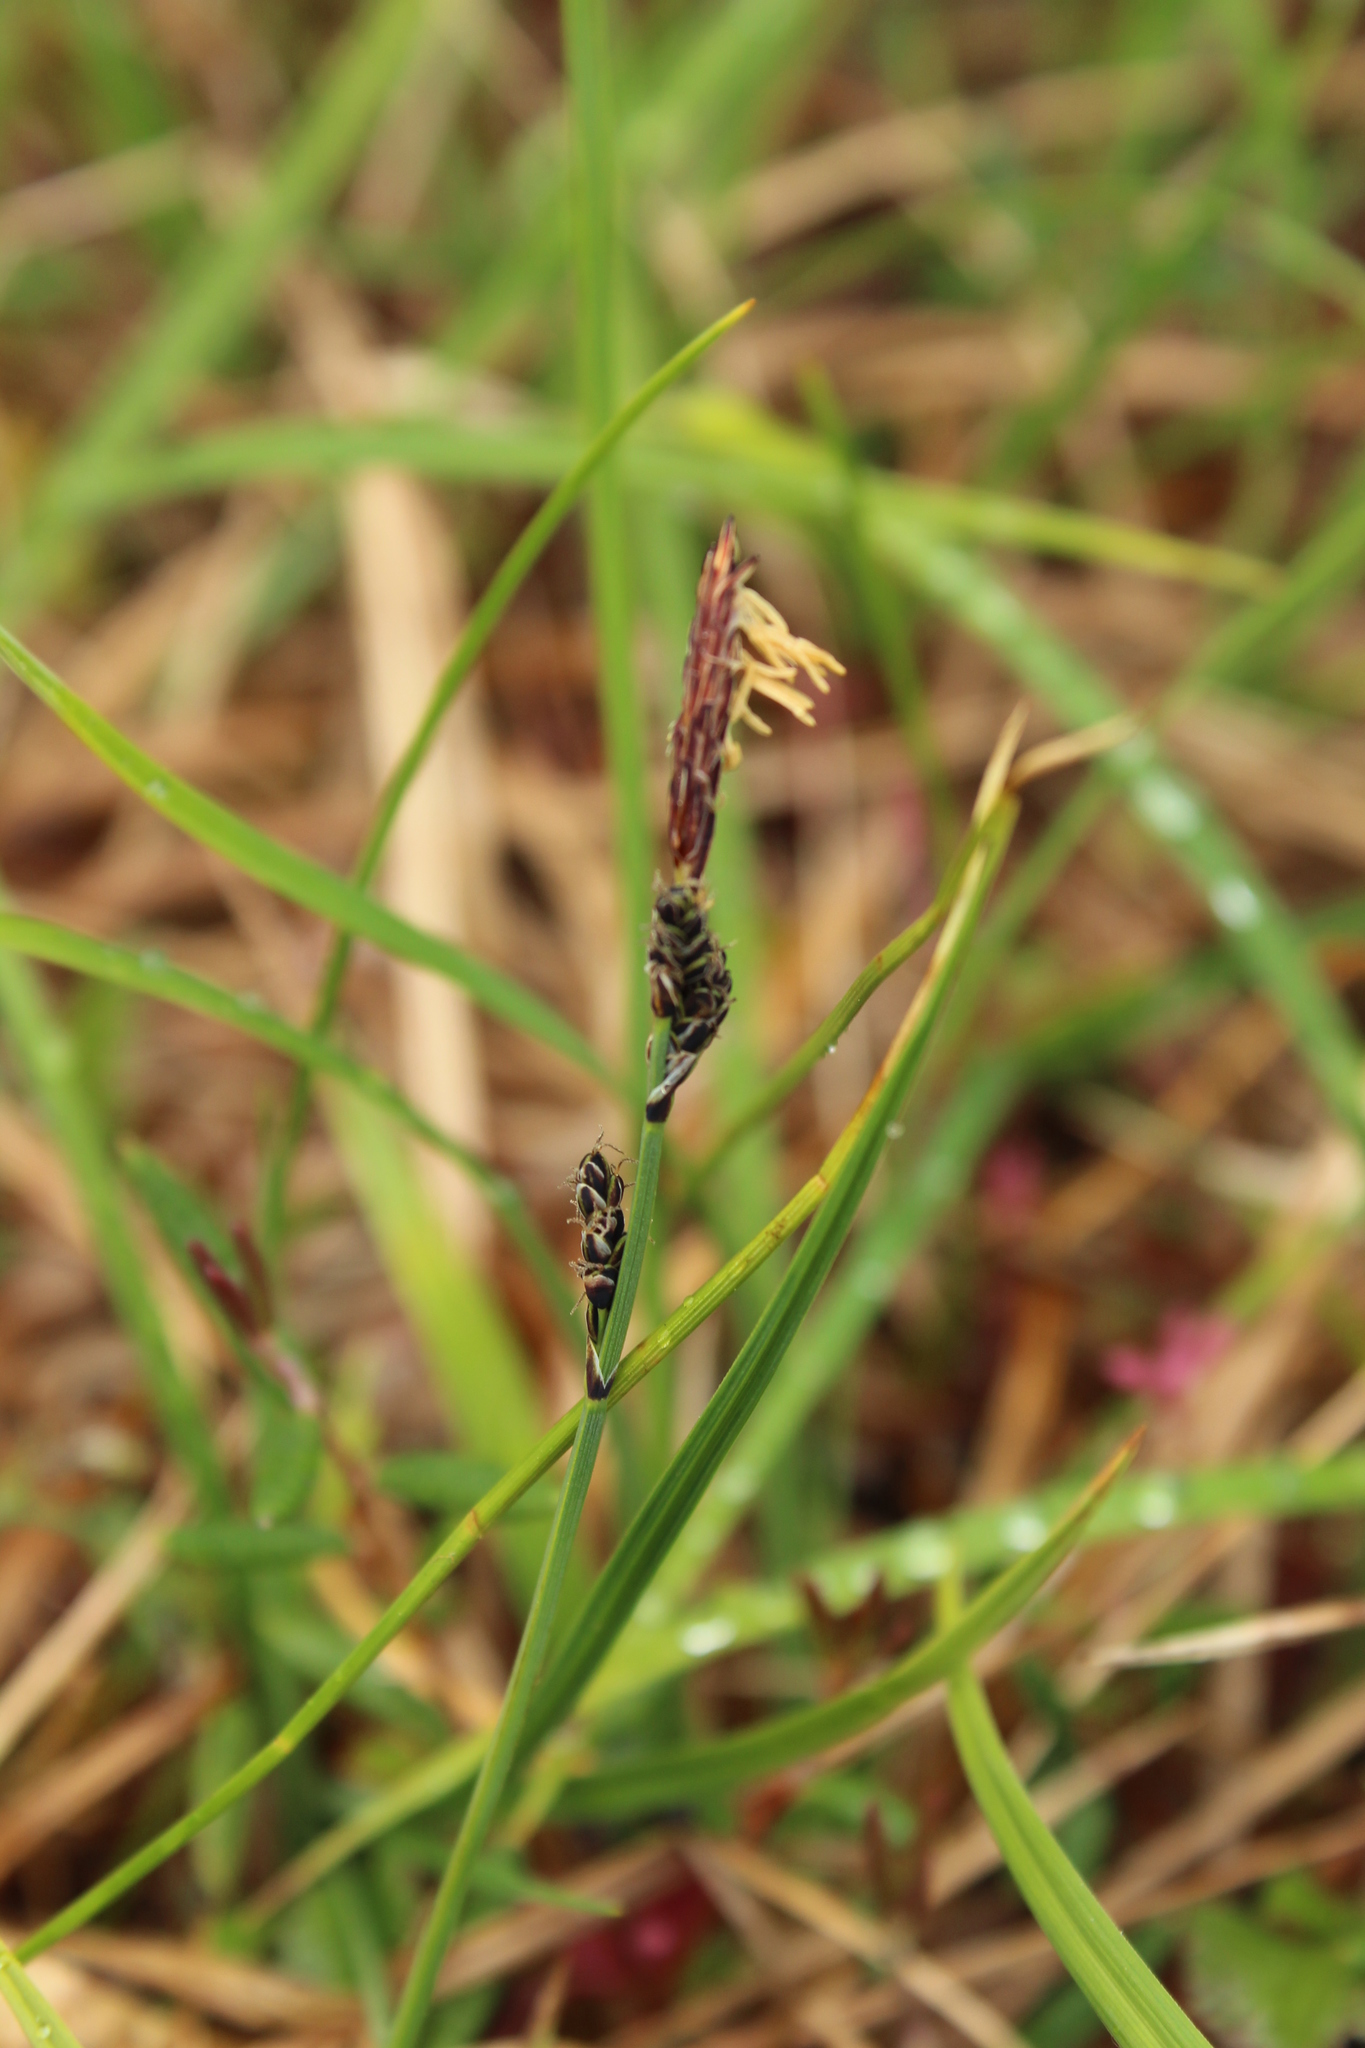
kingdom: Plantae
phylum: Tracheophyta
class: Liliopsida
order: Poales
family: Cyperaceae
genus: Carex
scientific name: Carex bigelowii
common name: Stiff sedge
